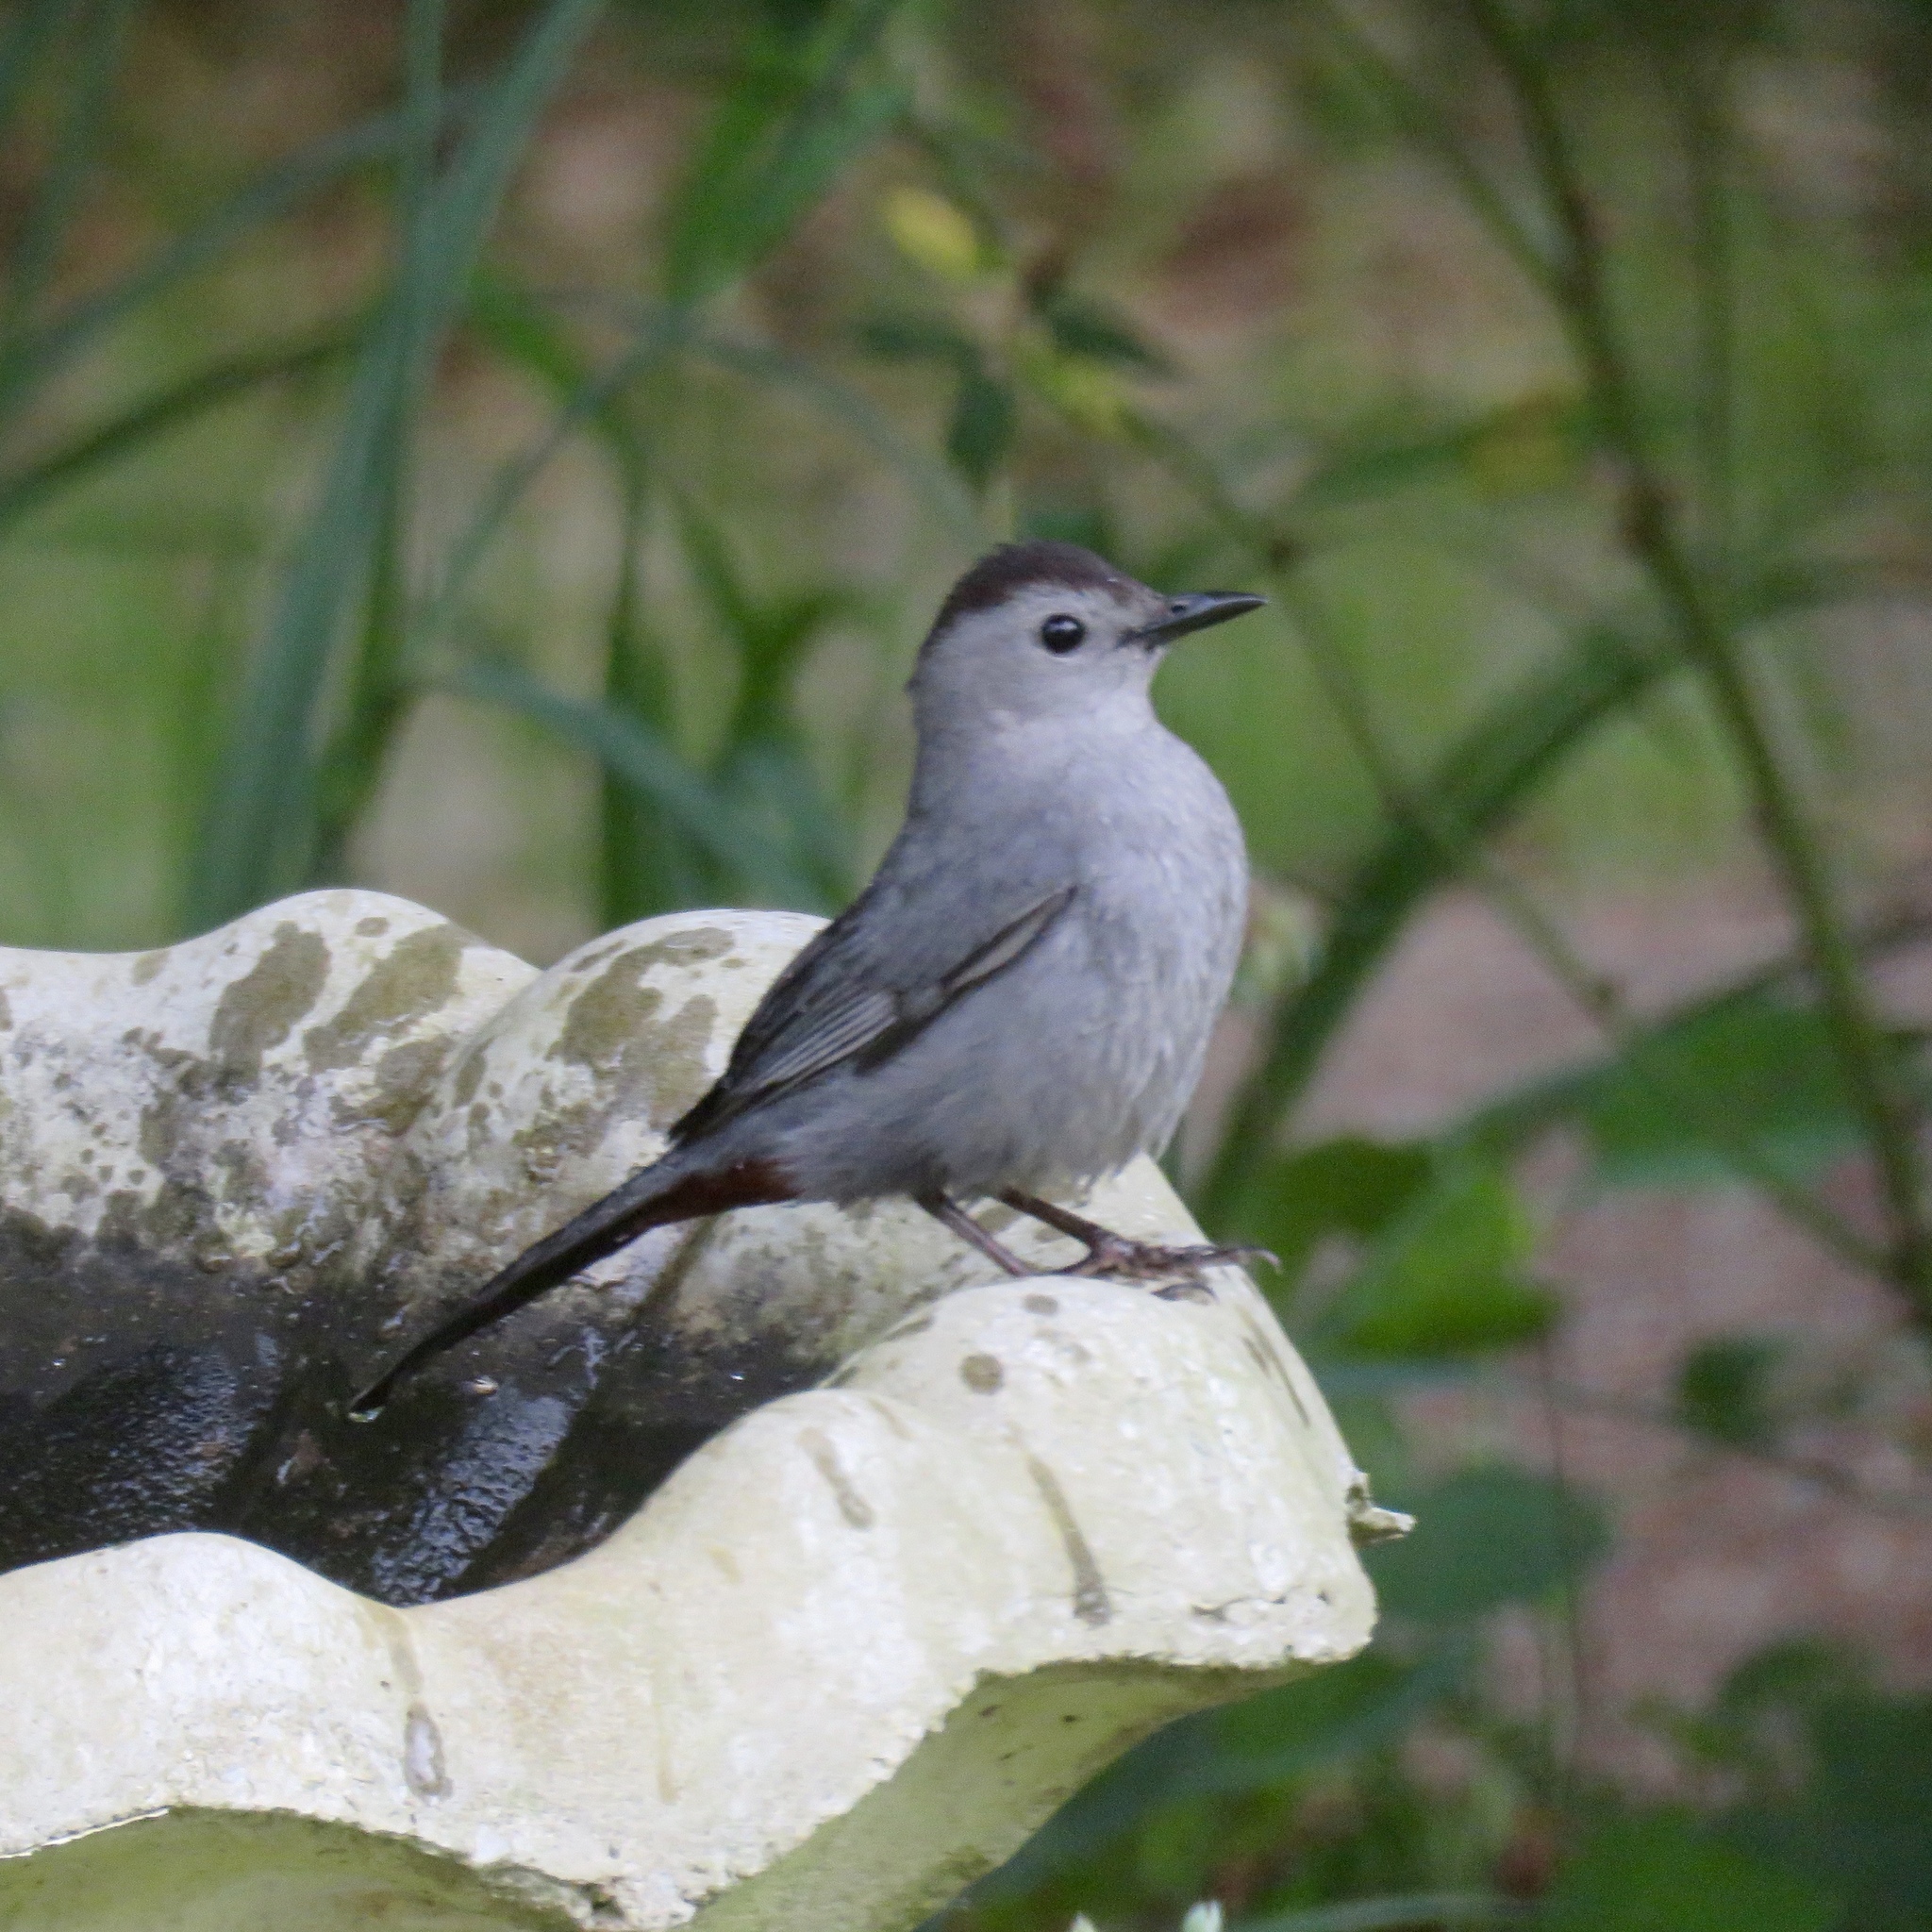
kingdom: Animalia
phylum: Chordata
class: Aves
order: Passeriformes
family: Mimidae
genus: Dumetella
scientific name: Dumetella carolinensis
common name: Gray catbird
